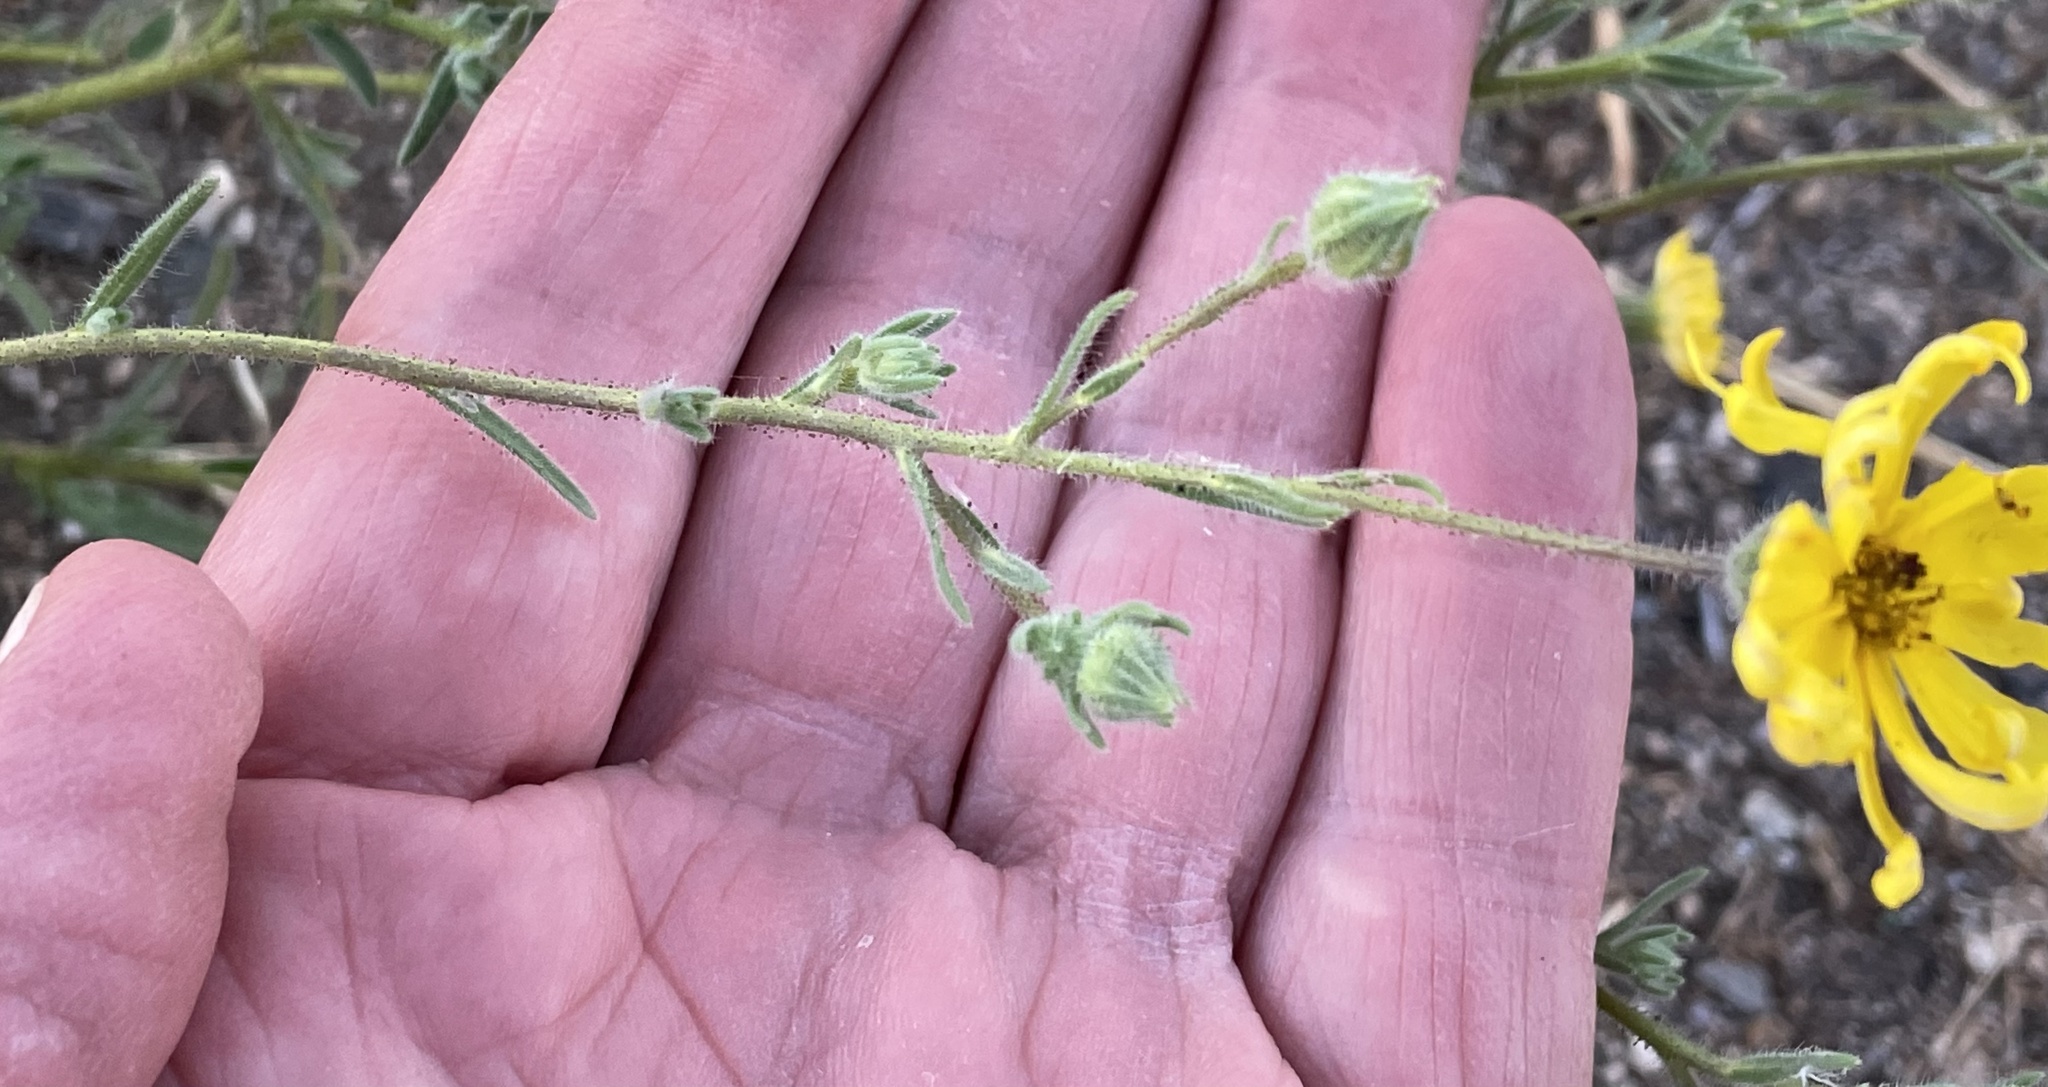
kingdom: Plantae
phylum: Tracheophyta
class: Magnoliopsida
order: Asterales
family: Asteraceae
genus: Madia
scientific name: Madia elegans
